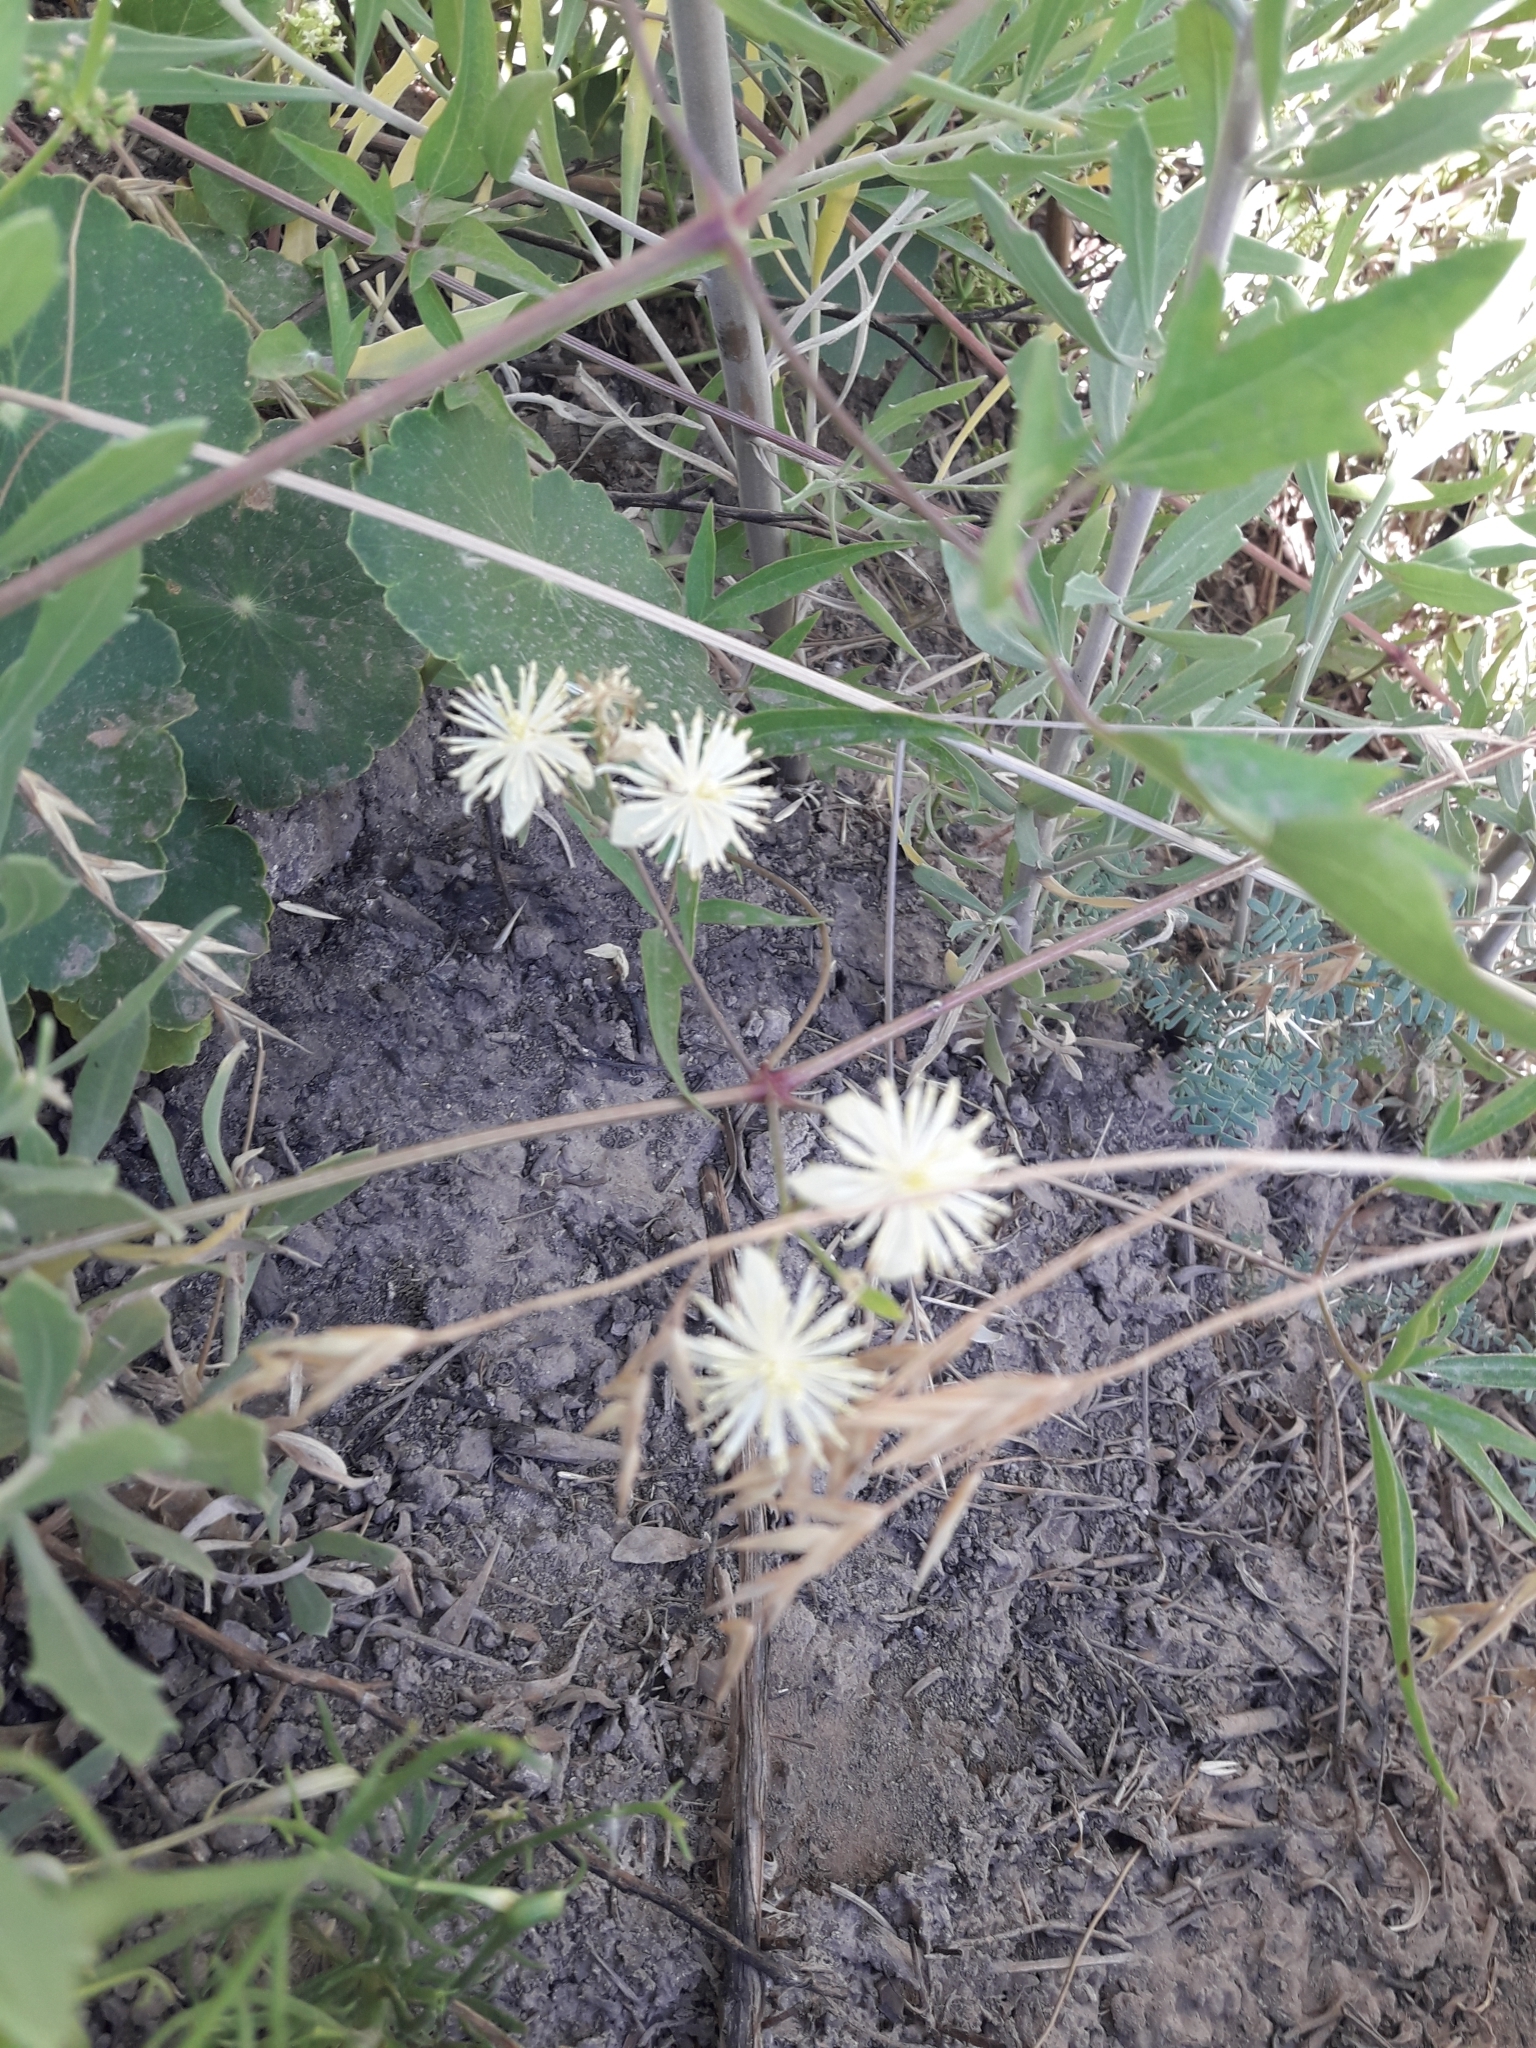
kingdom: Plantae
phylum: Tracheophyta
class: Magnoliopsida
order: Ranunculales
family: Ranunculaceae
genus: Clematis
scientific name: Clematis montevidensis
